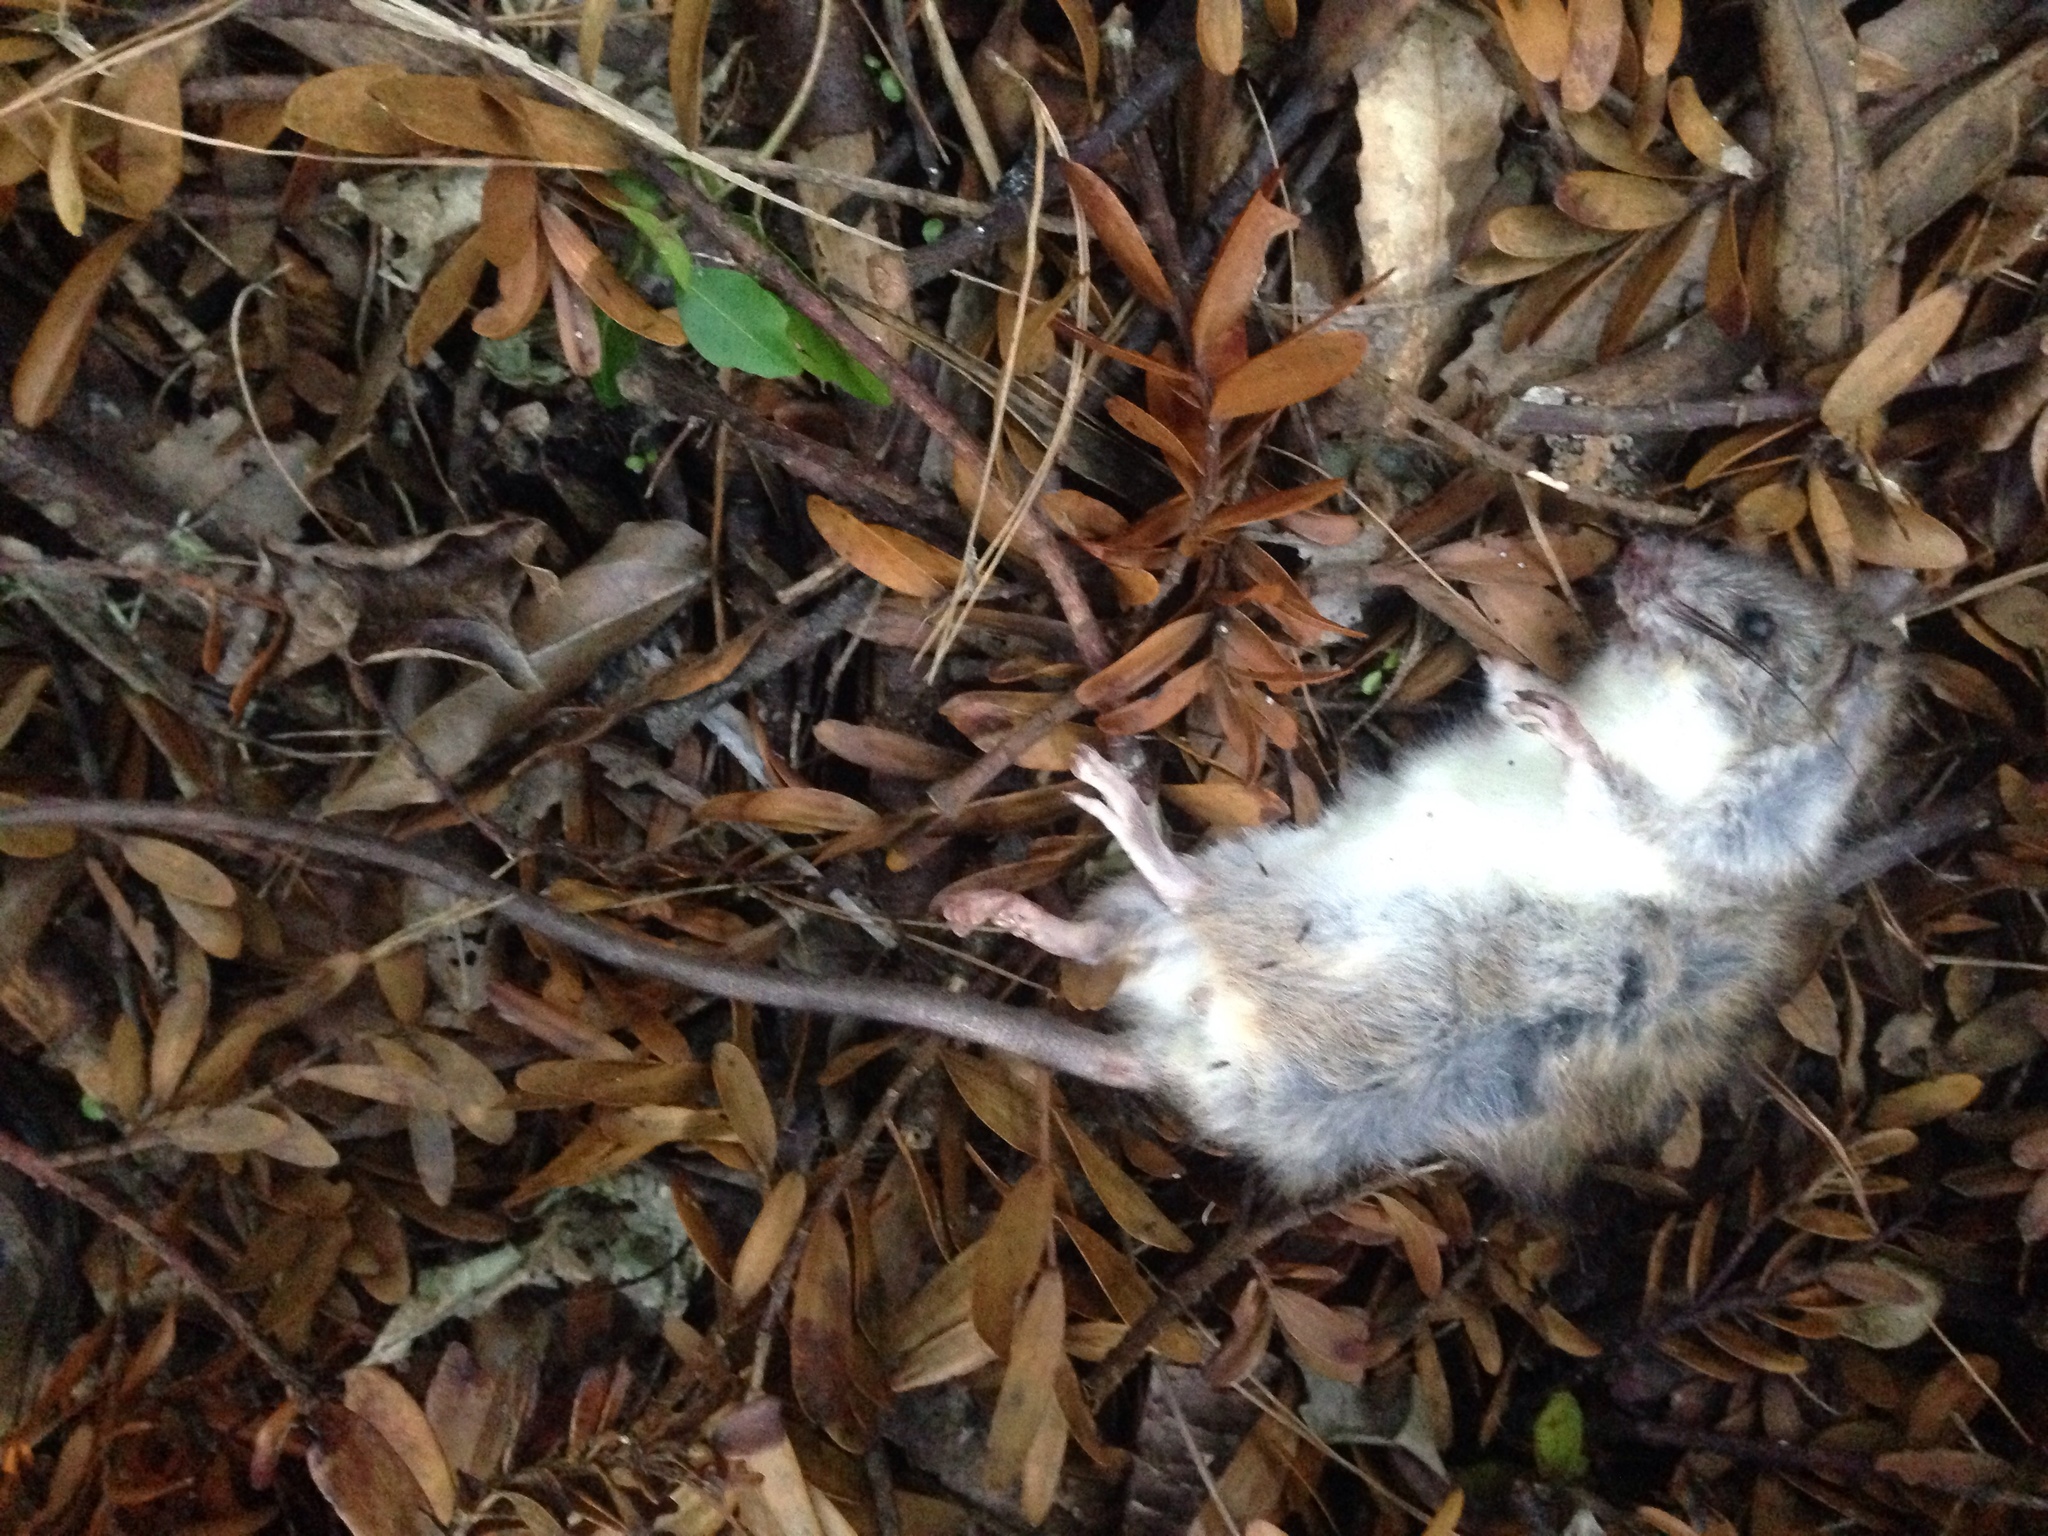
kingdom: Animalia
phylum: Chordata
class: Mammalia
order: Rodentia
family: Muridae
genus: Rattus
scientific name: Rattus rattus
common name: Black rat
